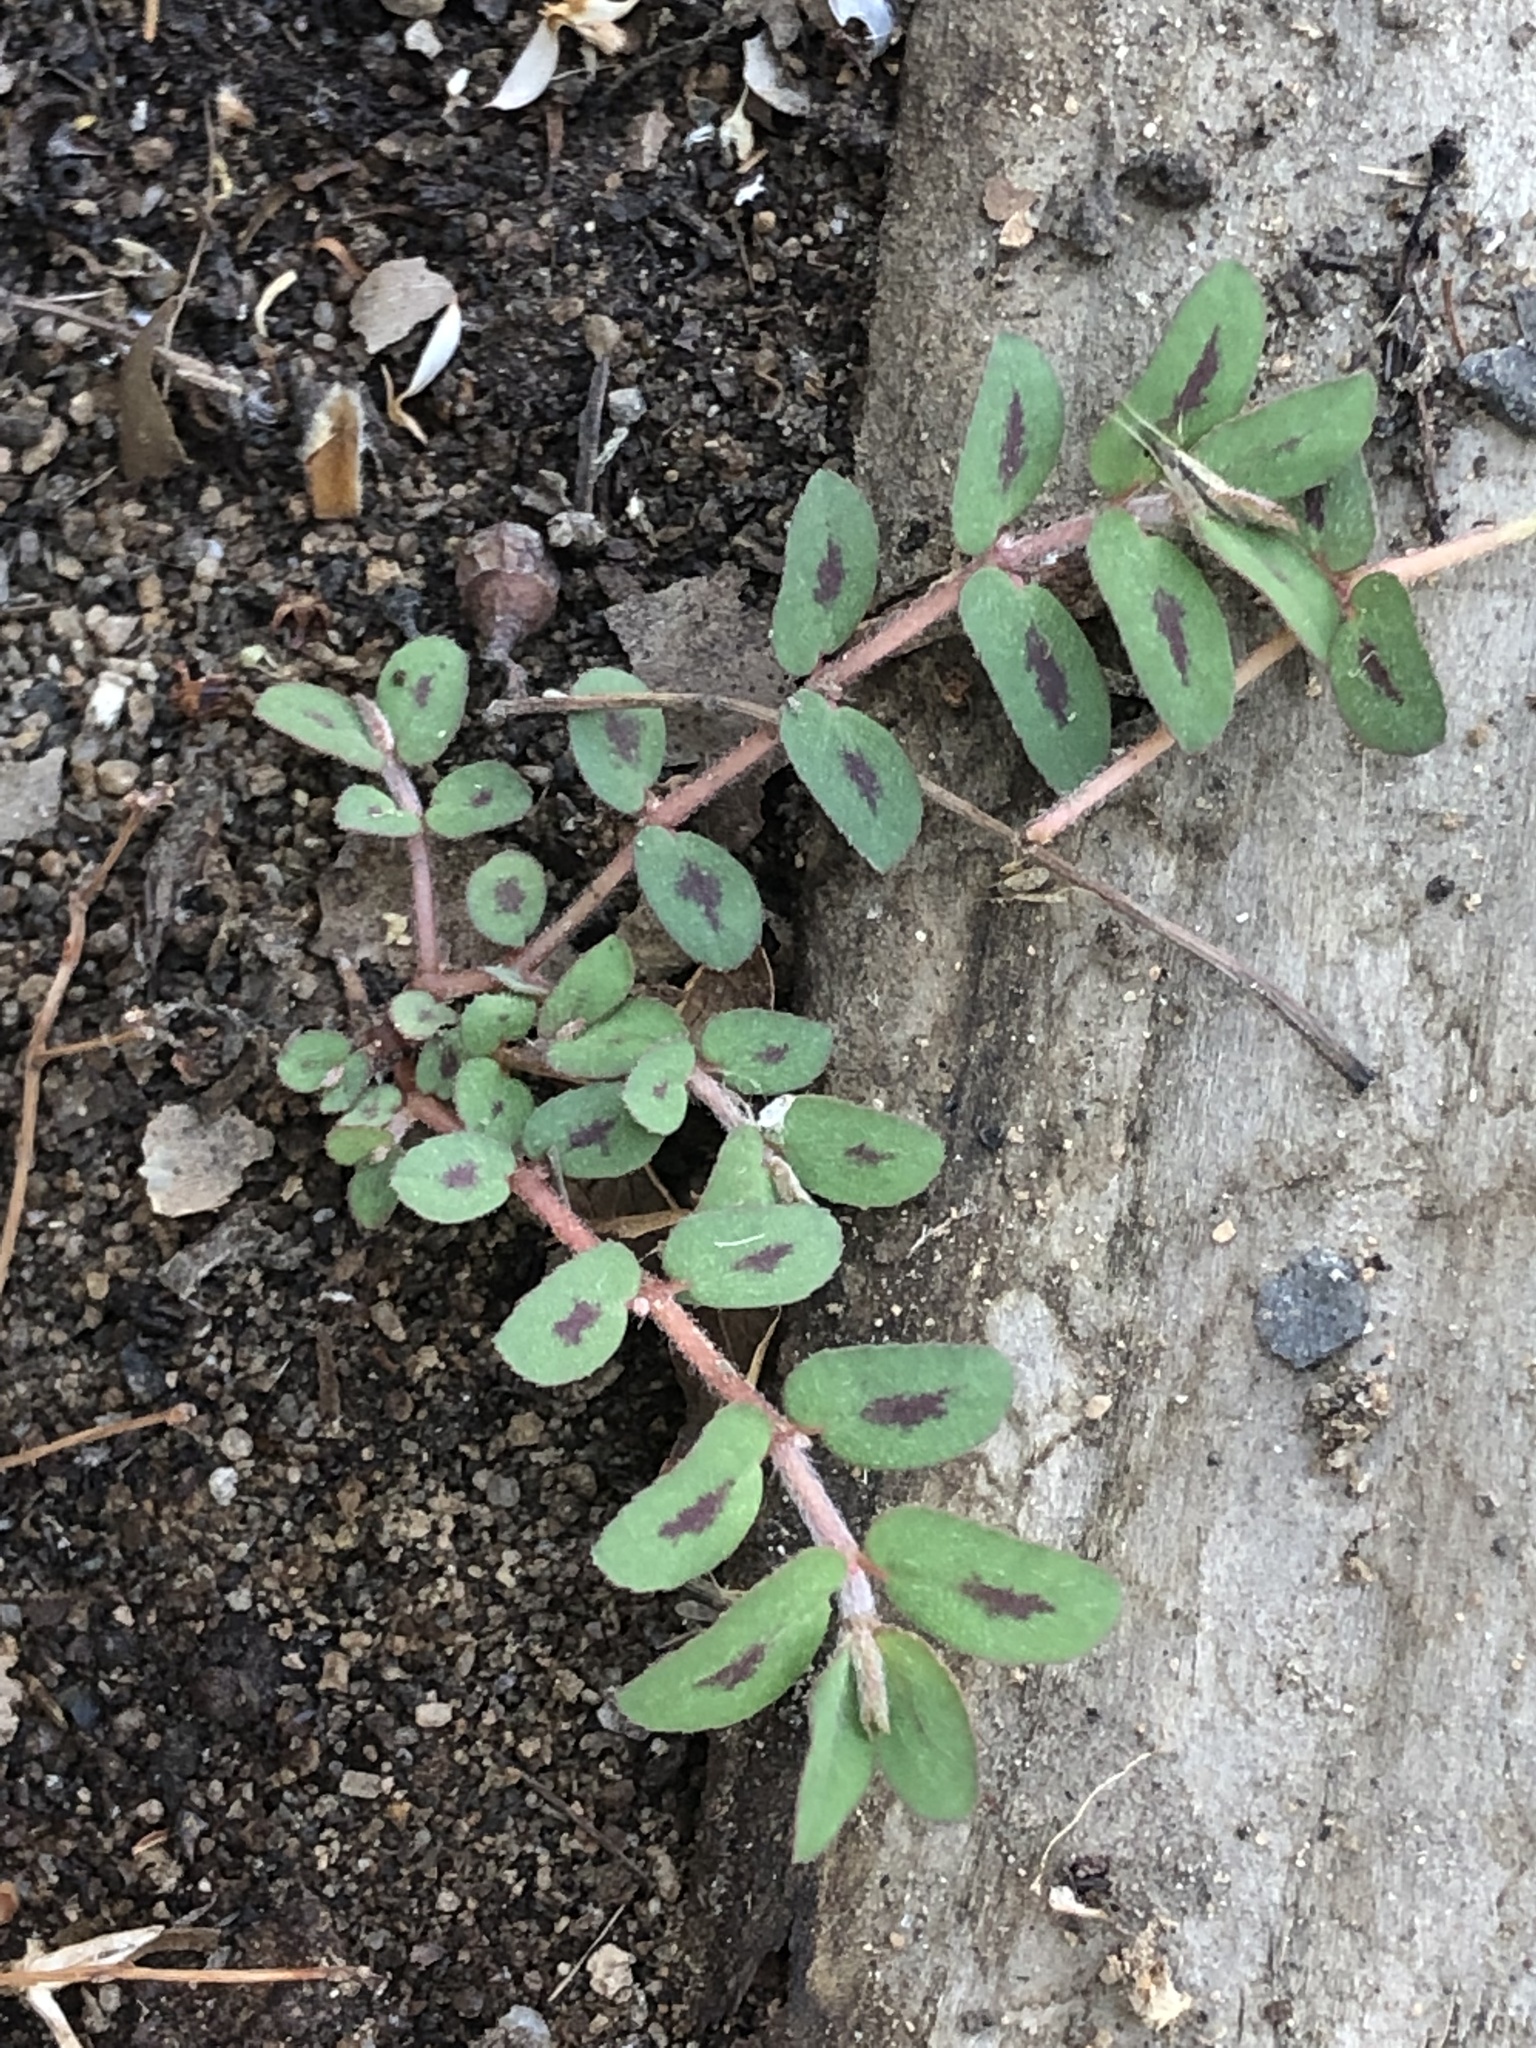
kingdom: Plantae
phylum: Tracheophyta
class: Magnoliopsida
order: Malpighiales
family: Euphorbiaceae
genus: Euphorbia
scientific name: Euphorbia maculata
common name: Spotted spurge
